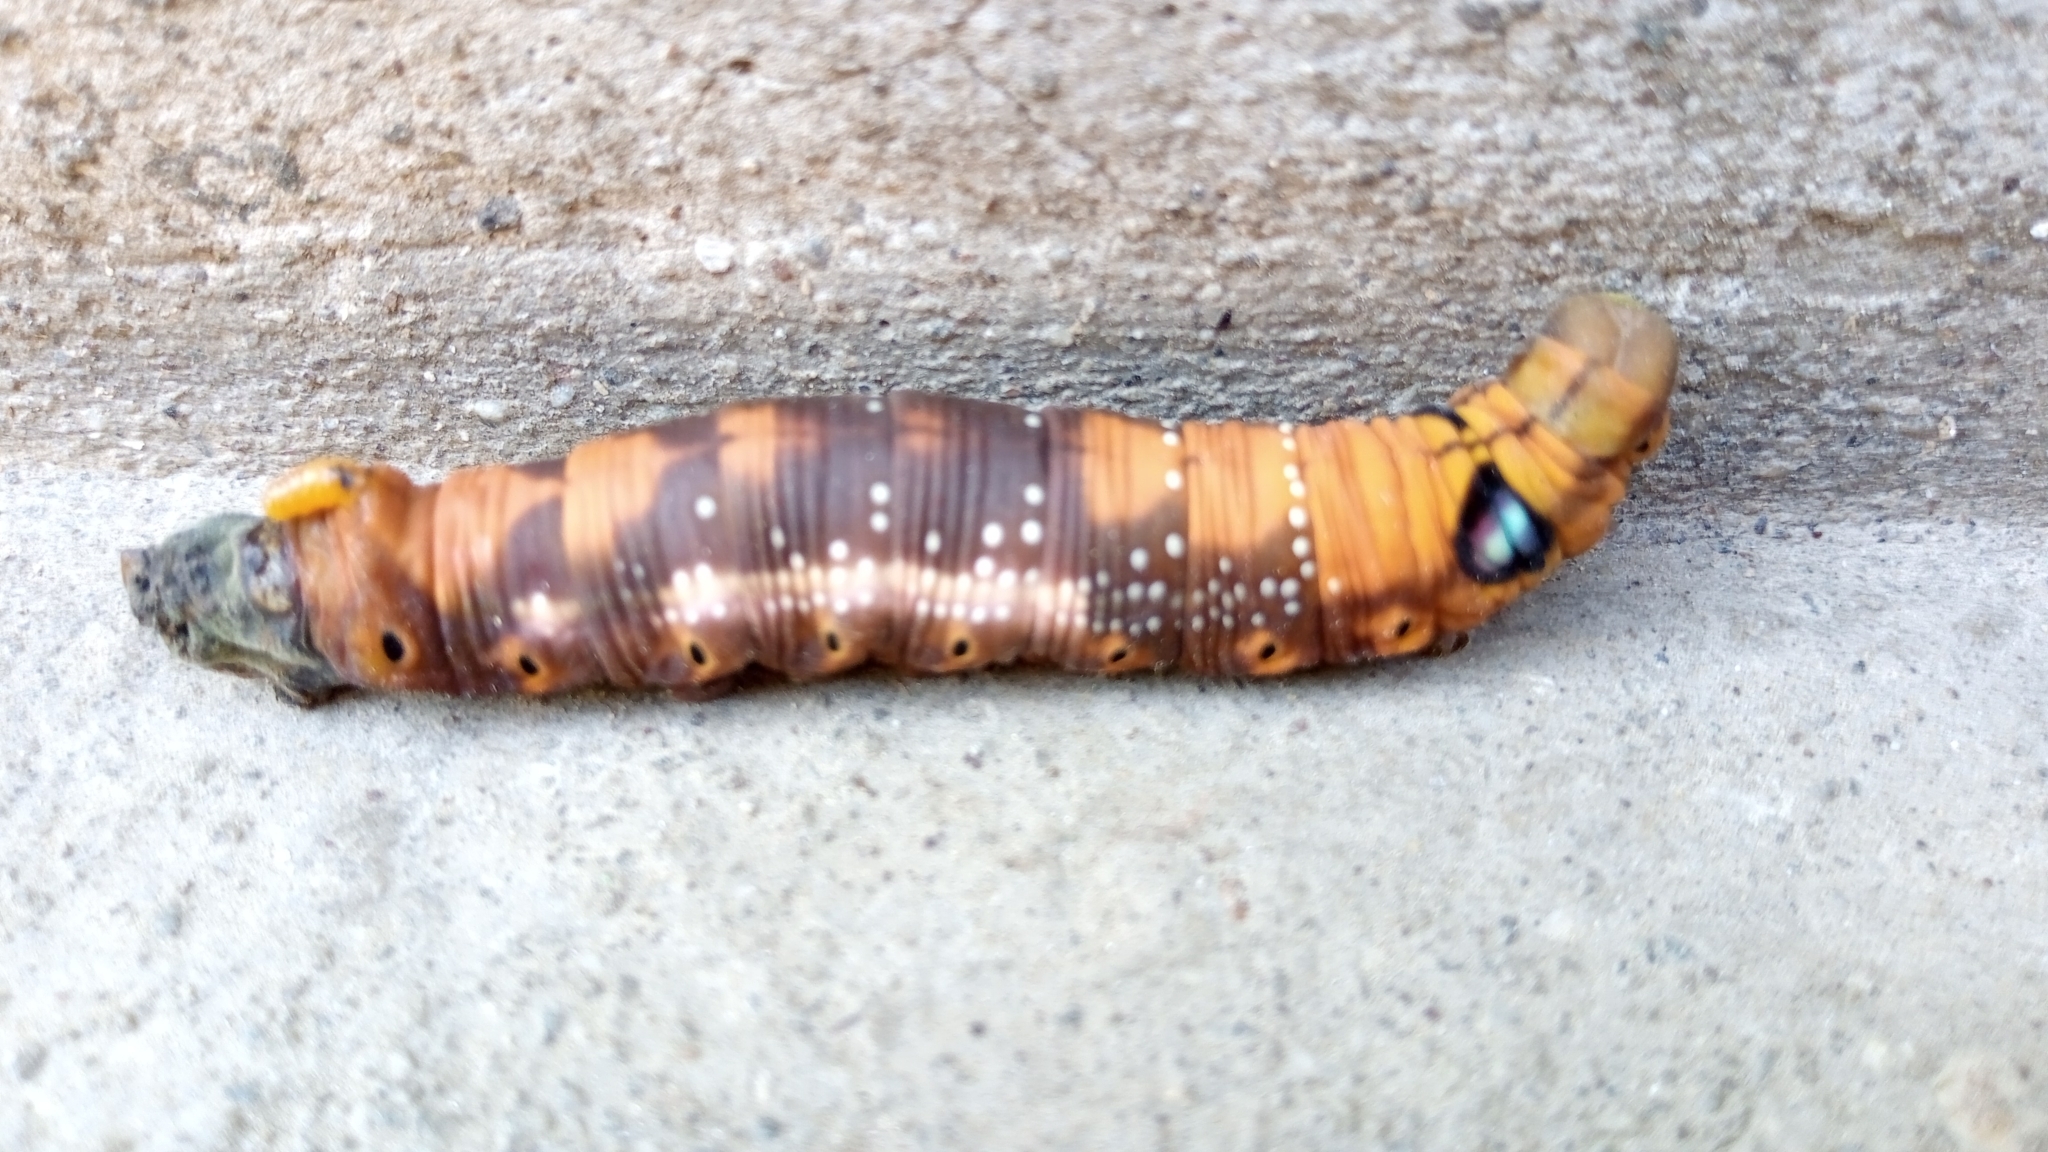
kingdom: Animalia
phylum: Arthropoda
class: Insecta
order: Lepidoptera
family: Sphingidae
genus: Daphnis
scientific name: Daphnis nerii
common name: Oleander hawk-moth
